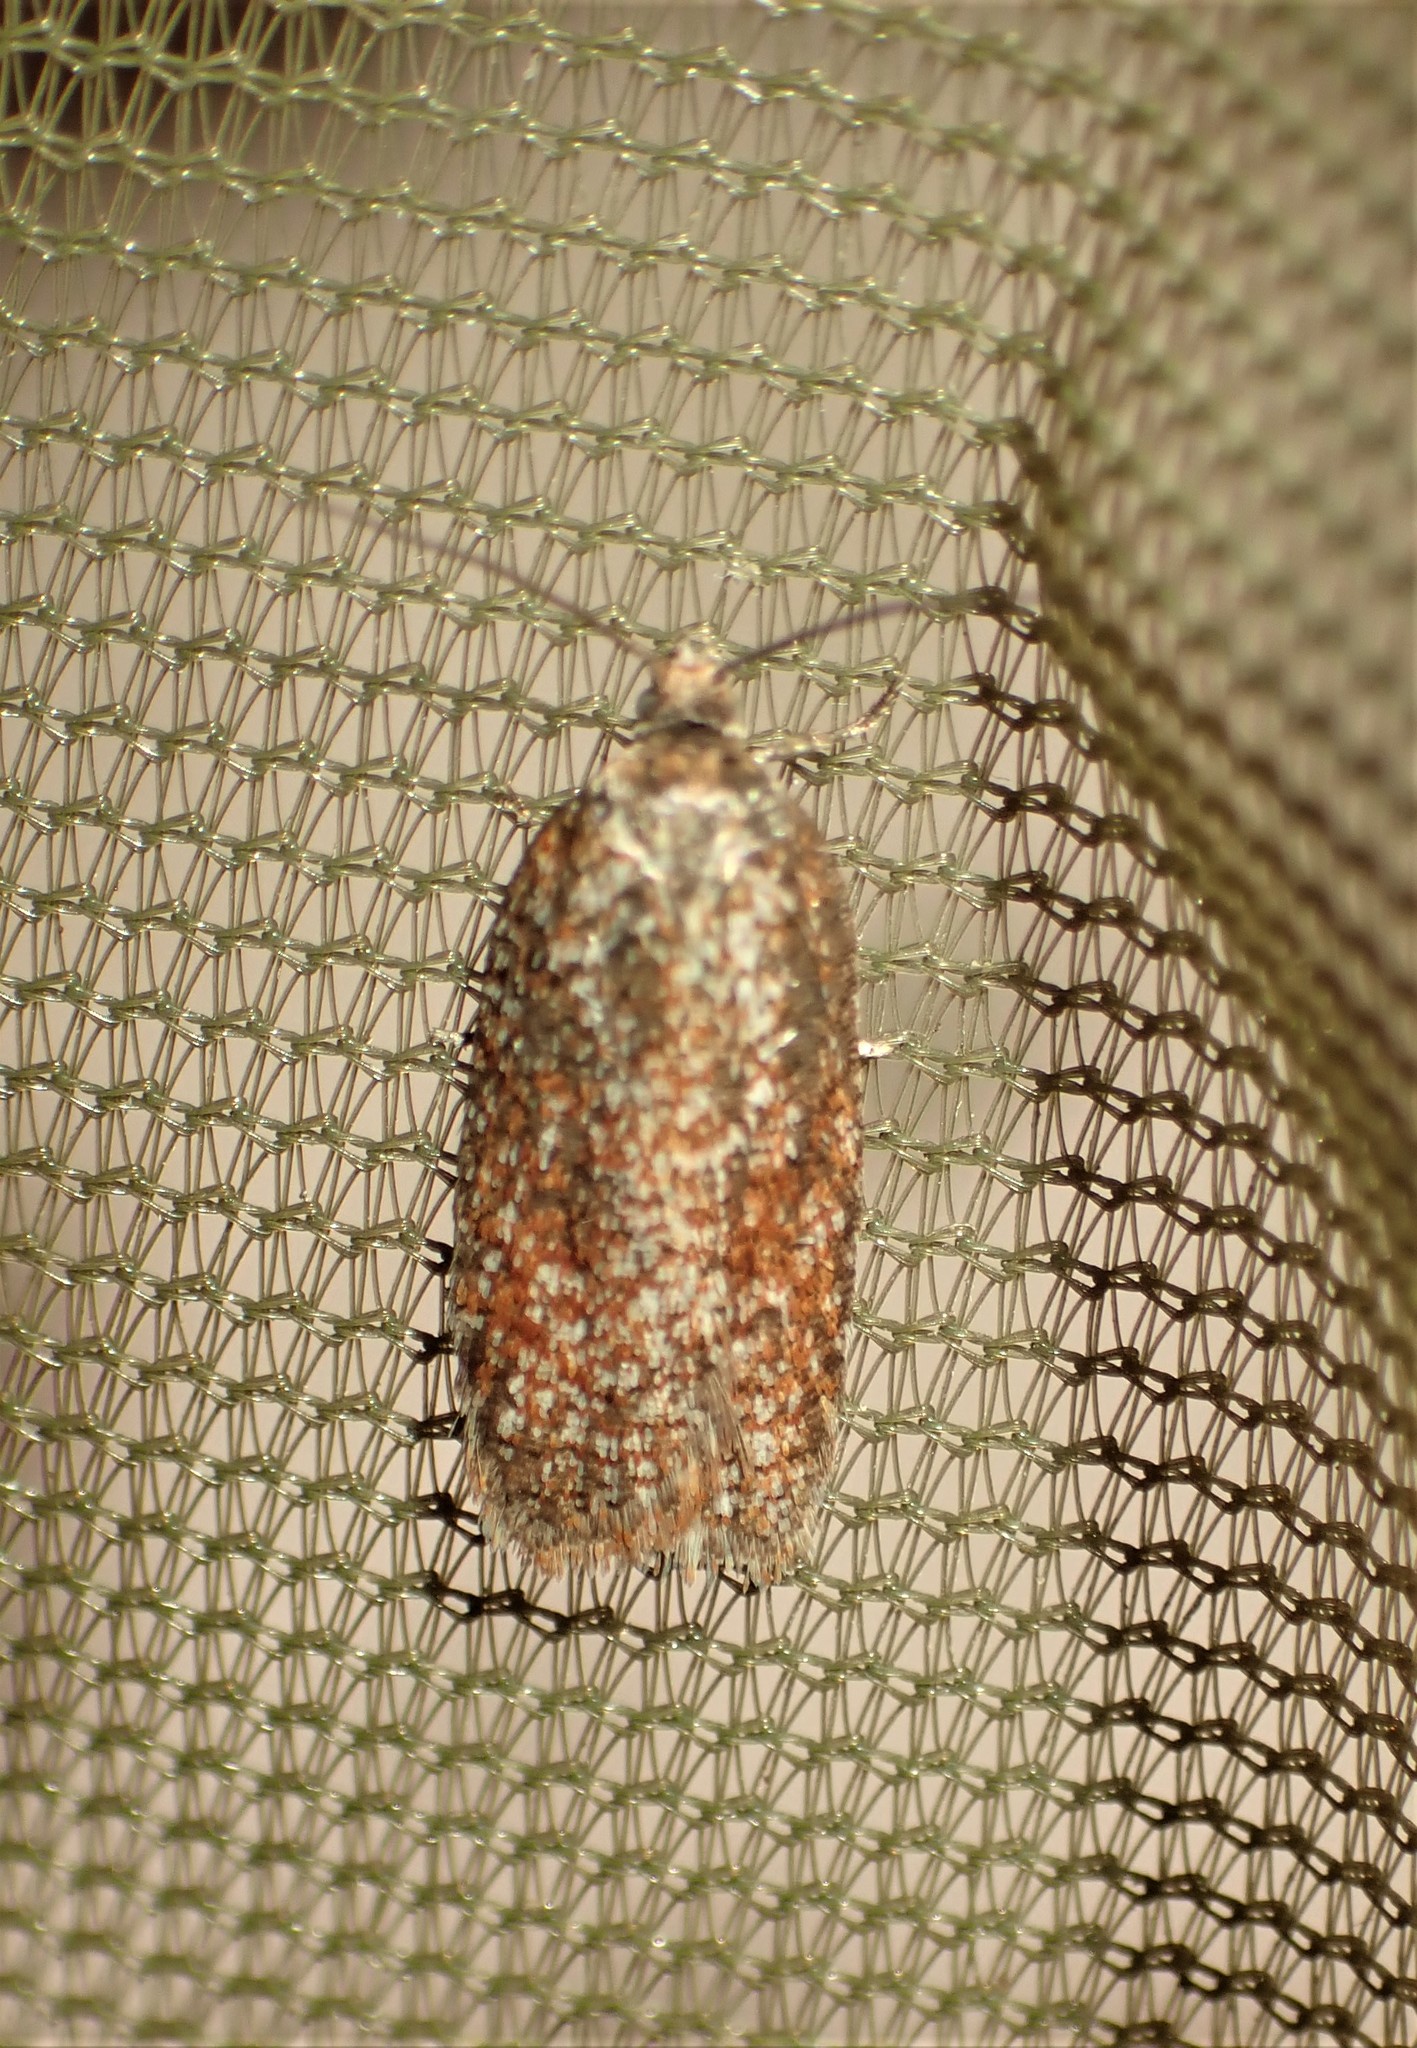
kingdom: Animalia
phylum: Arthropoda
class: Insecta
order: Lepidoptera
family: Tortricidae
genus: Acleris
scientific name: Acleris oxycoccana
